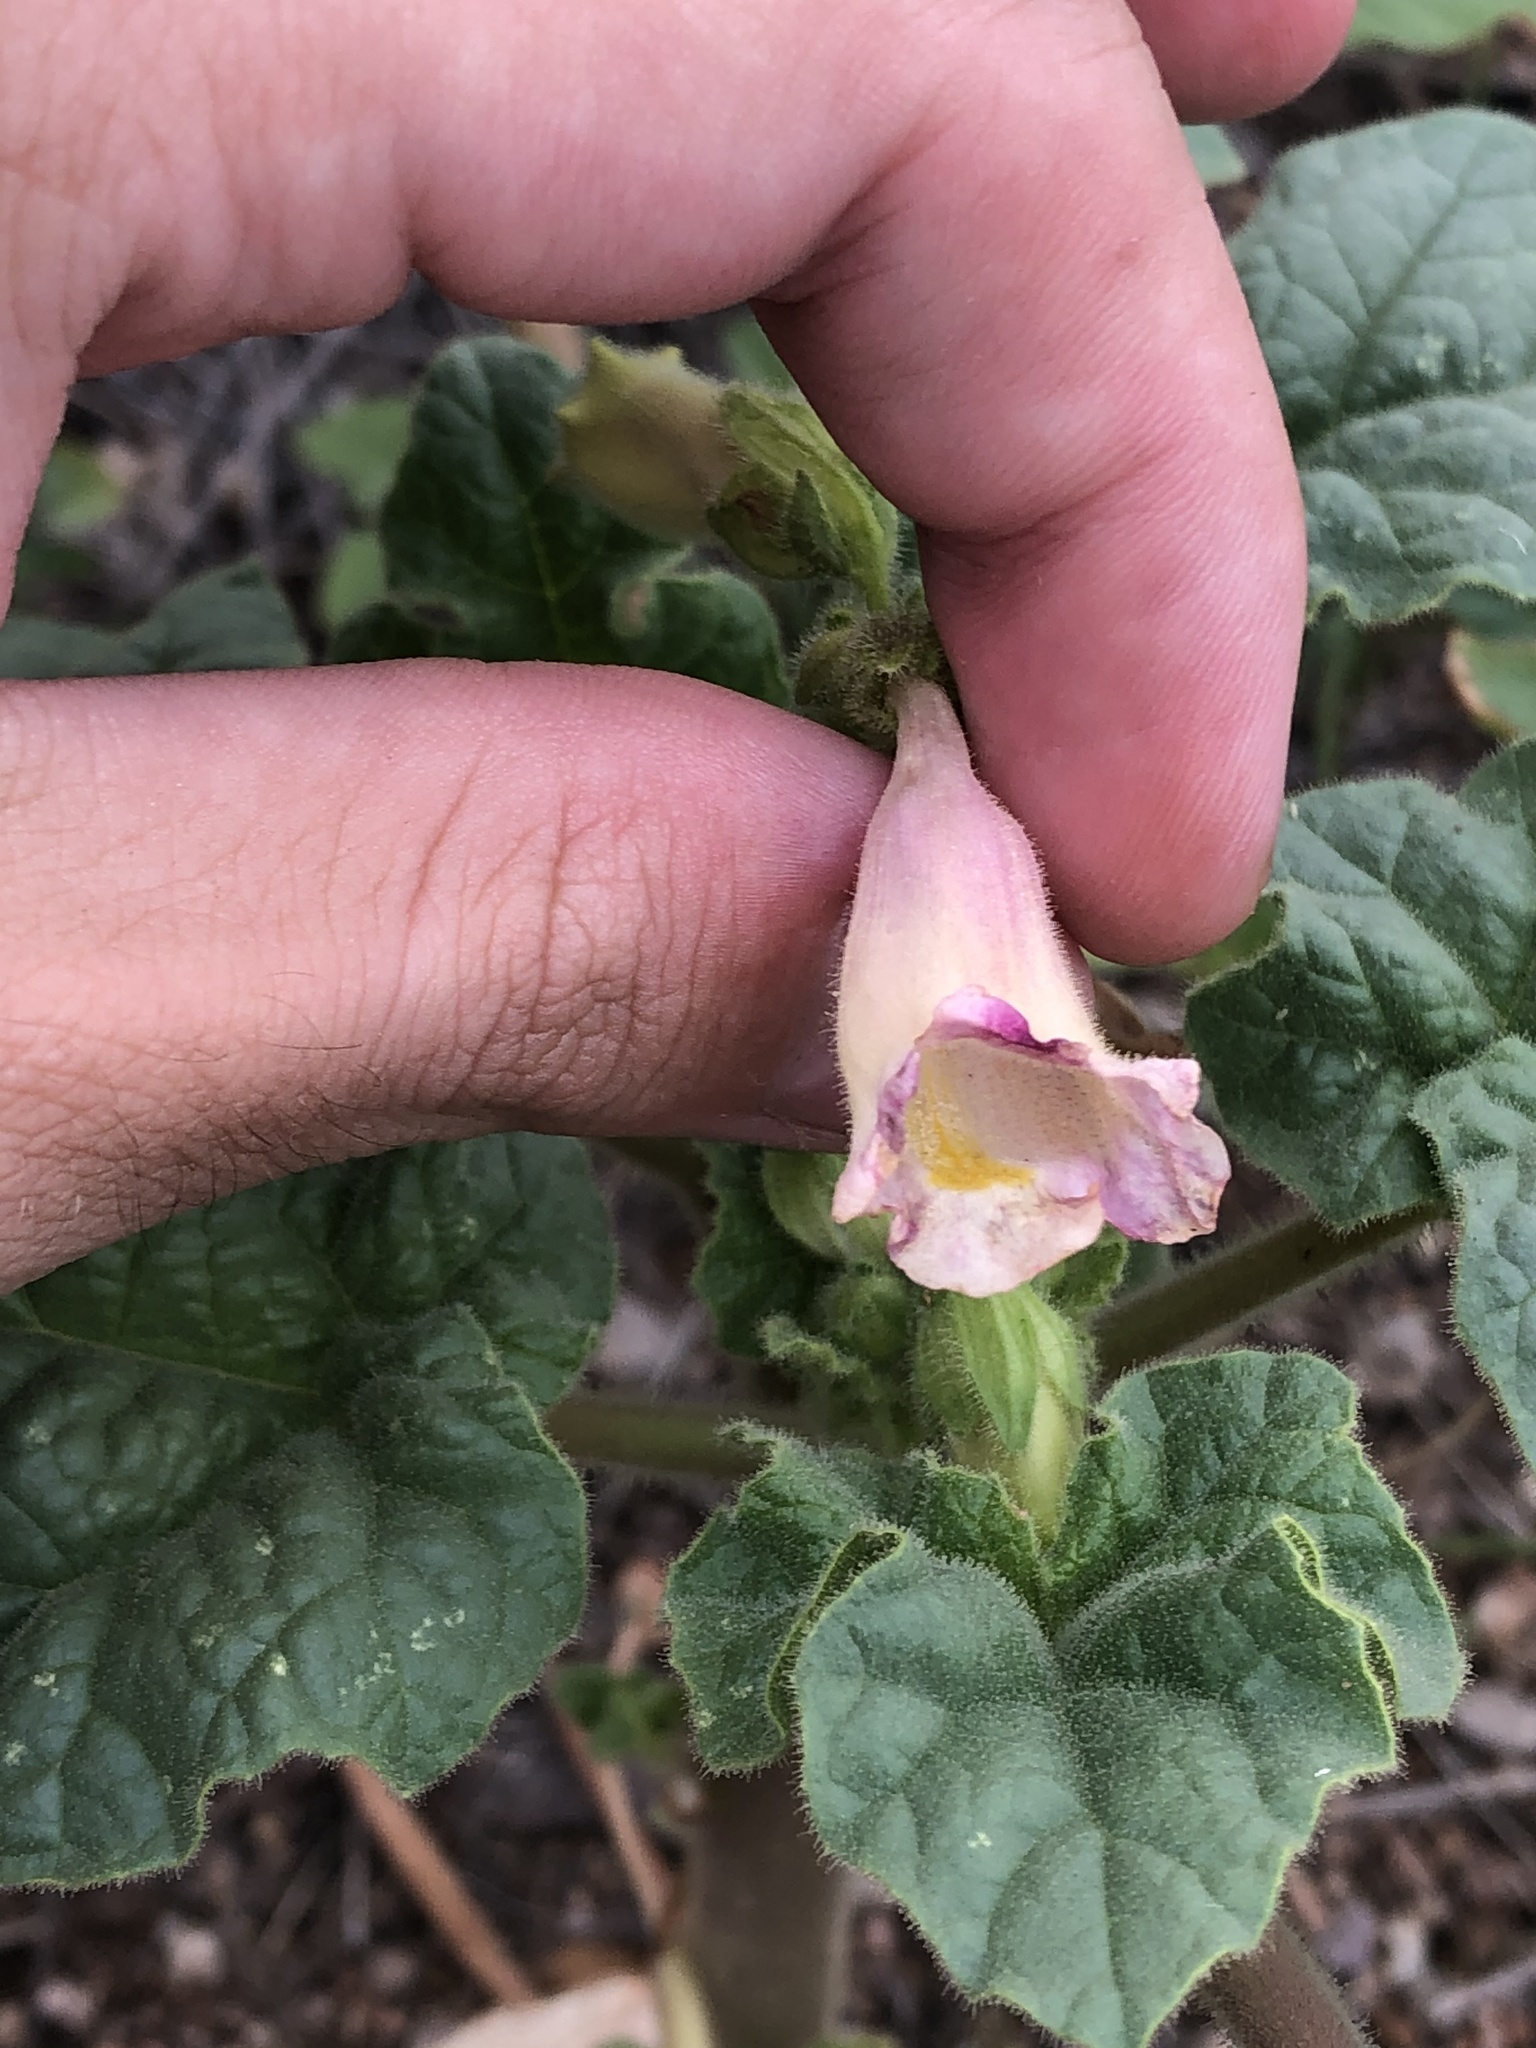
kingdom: Plantae
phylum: Tracheophyta
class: Magnoliopsida
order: Lamiales
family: Martyniaceae
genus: Proboscidea
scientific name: Proboscidea parviflora
